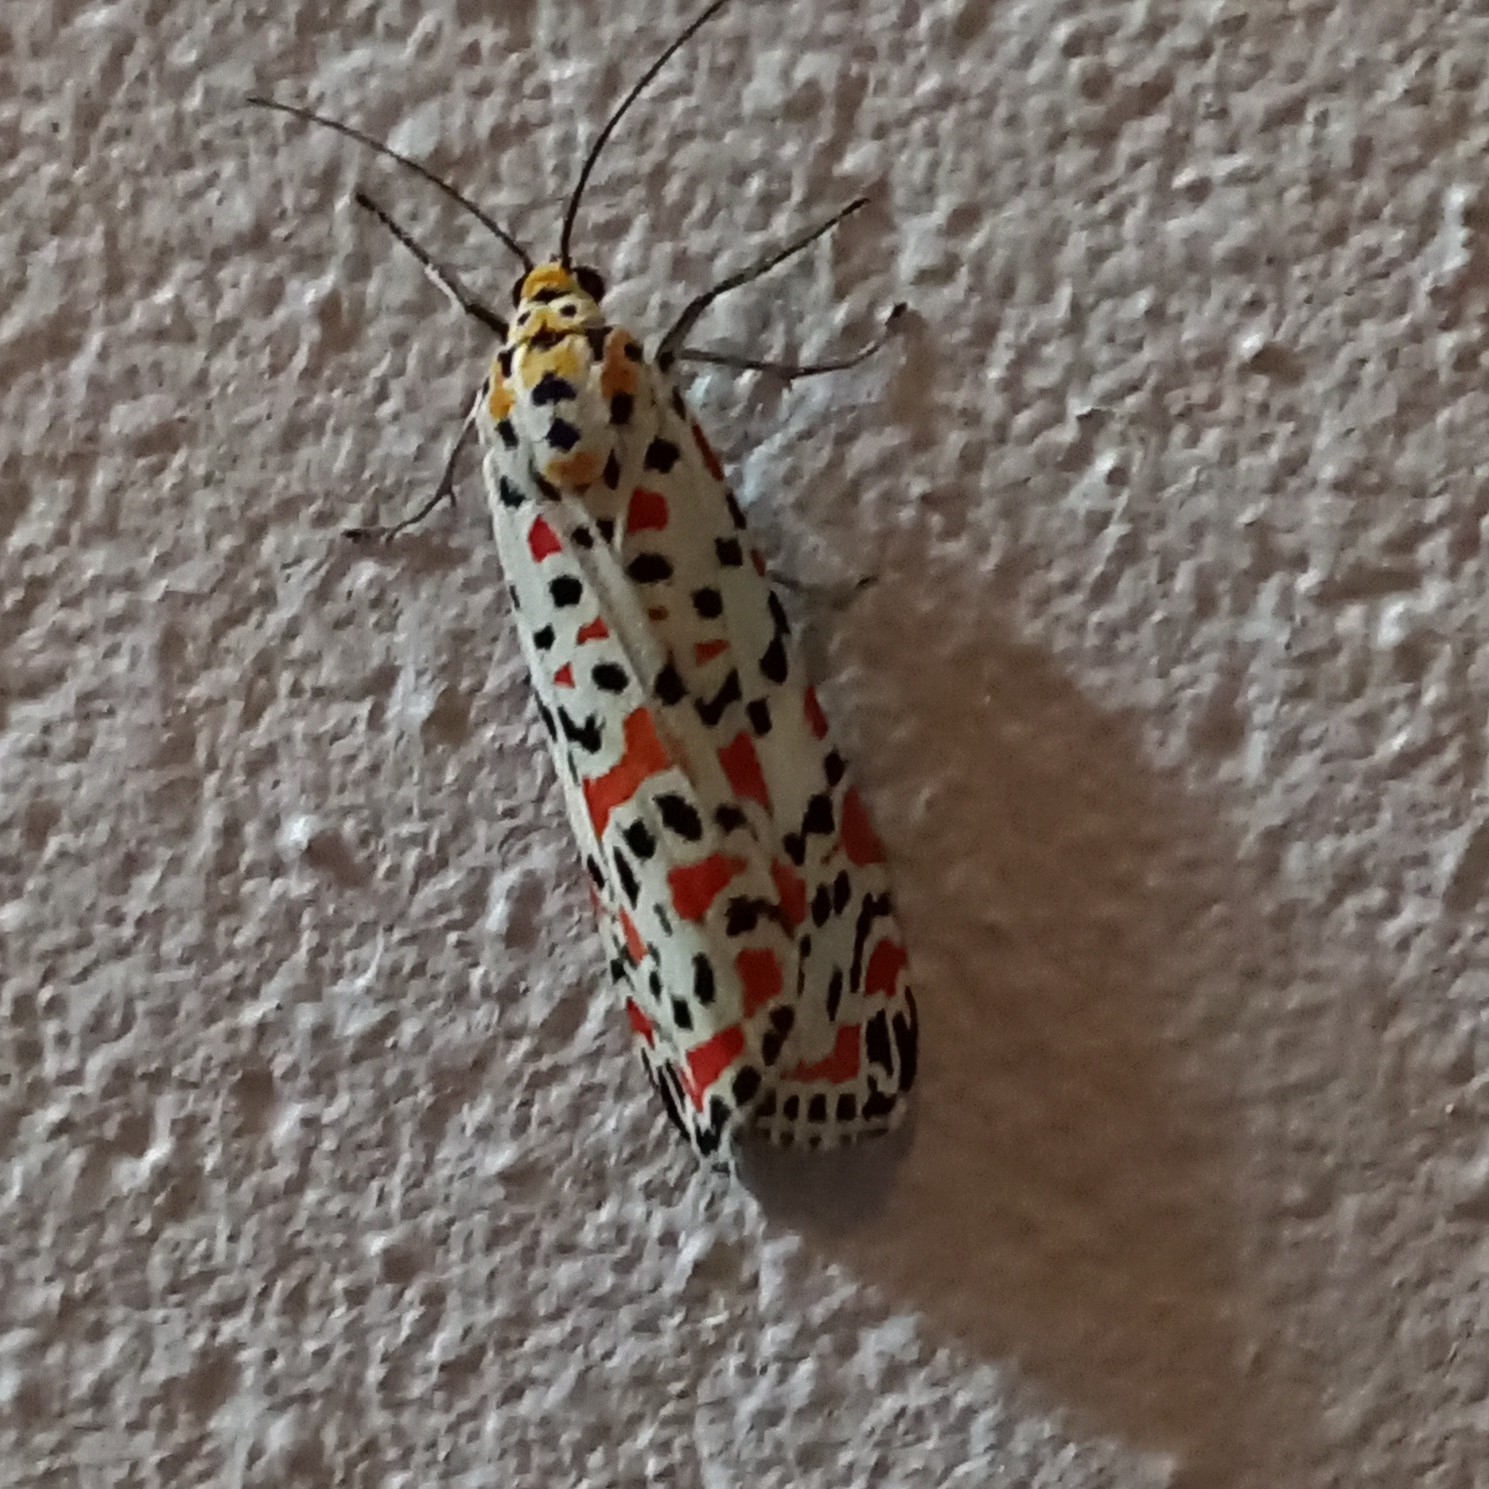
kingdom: Animalia
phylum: Arthropoda
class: Insecta
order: Lepidoptera
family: Erebidae
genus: Utetheisa
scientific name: Utetheisa pulchella
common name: Crimson speckled
